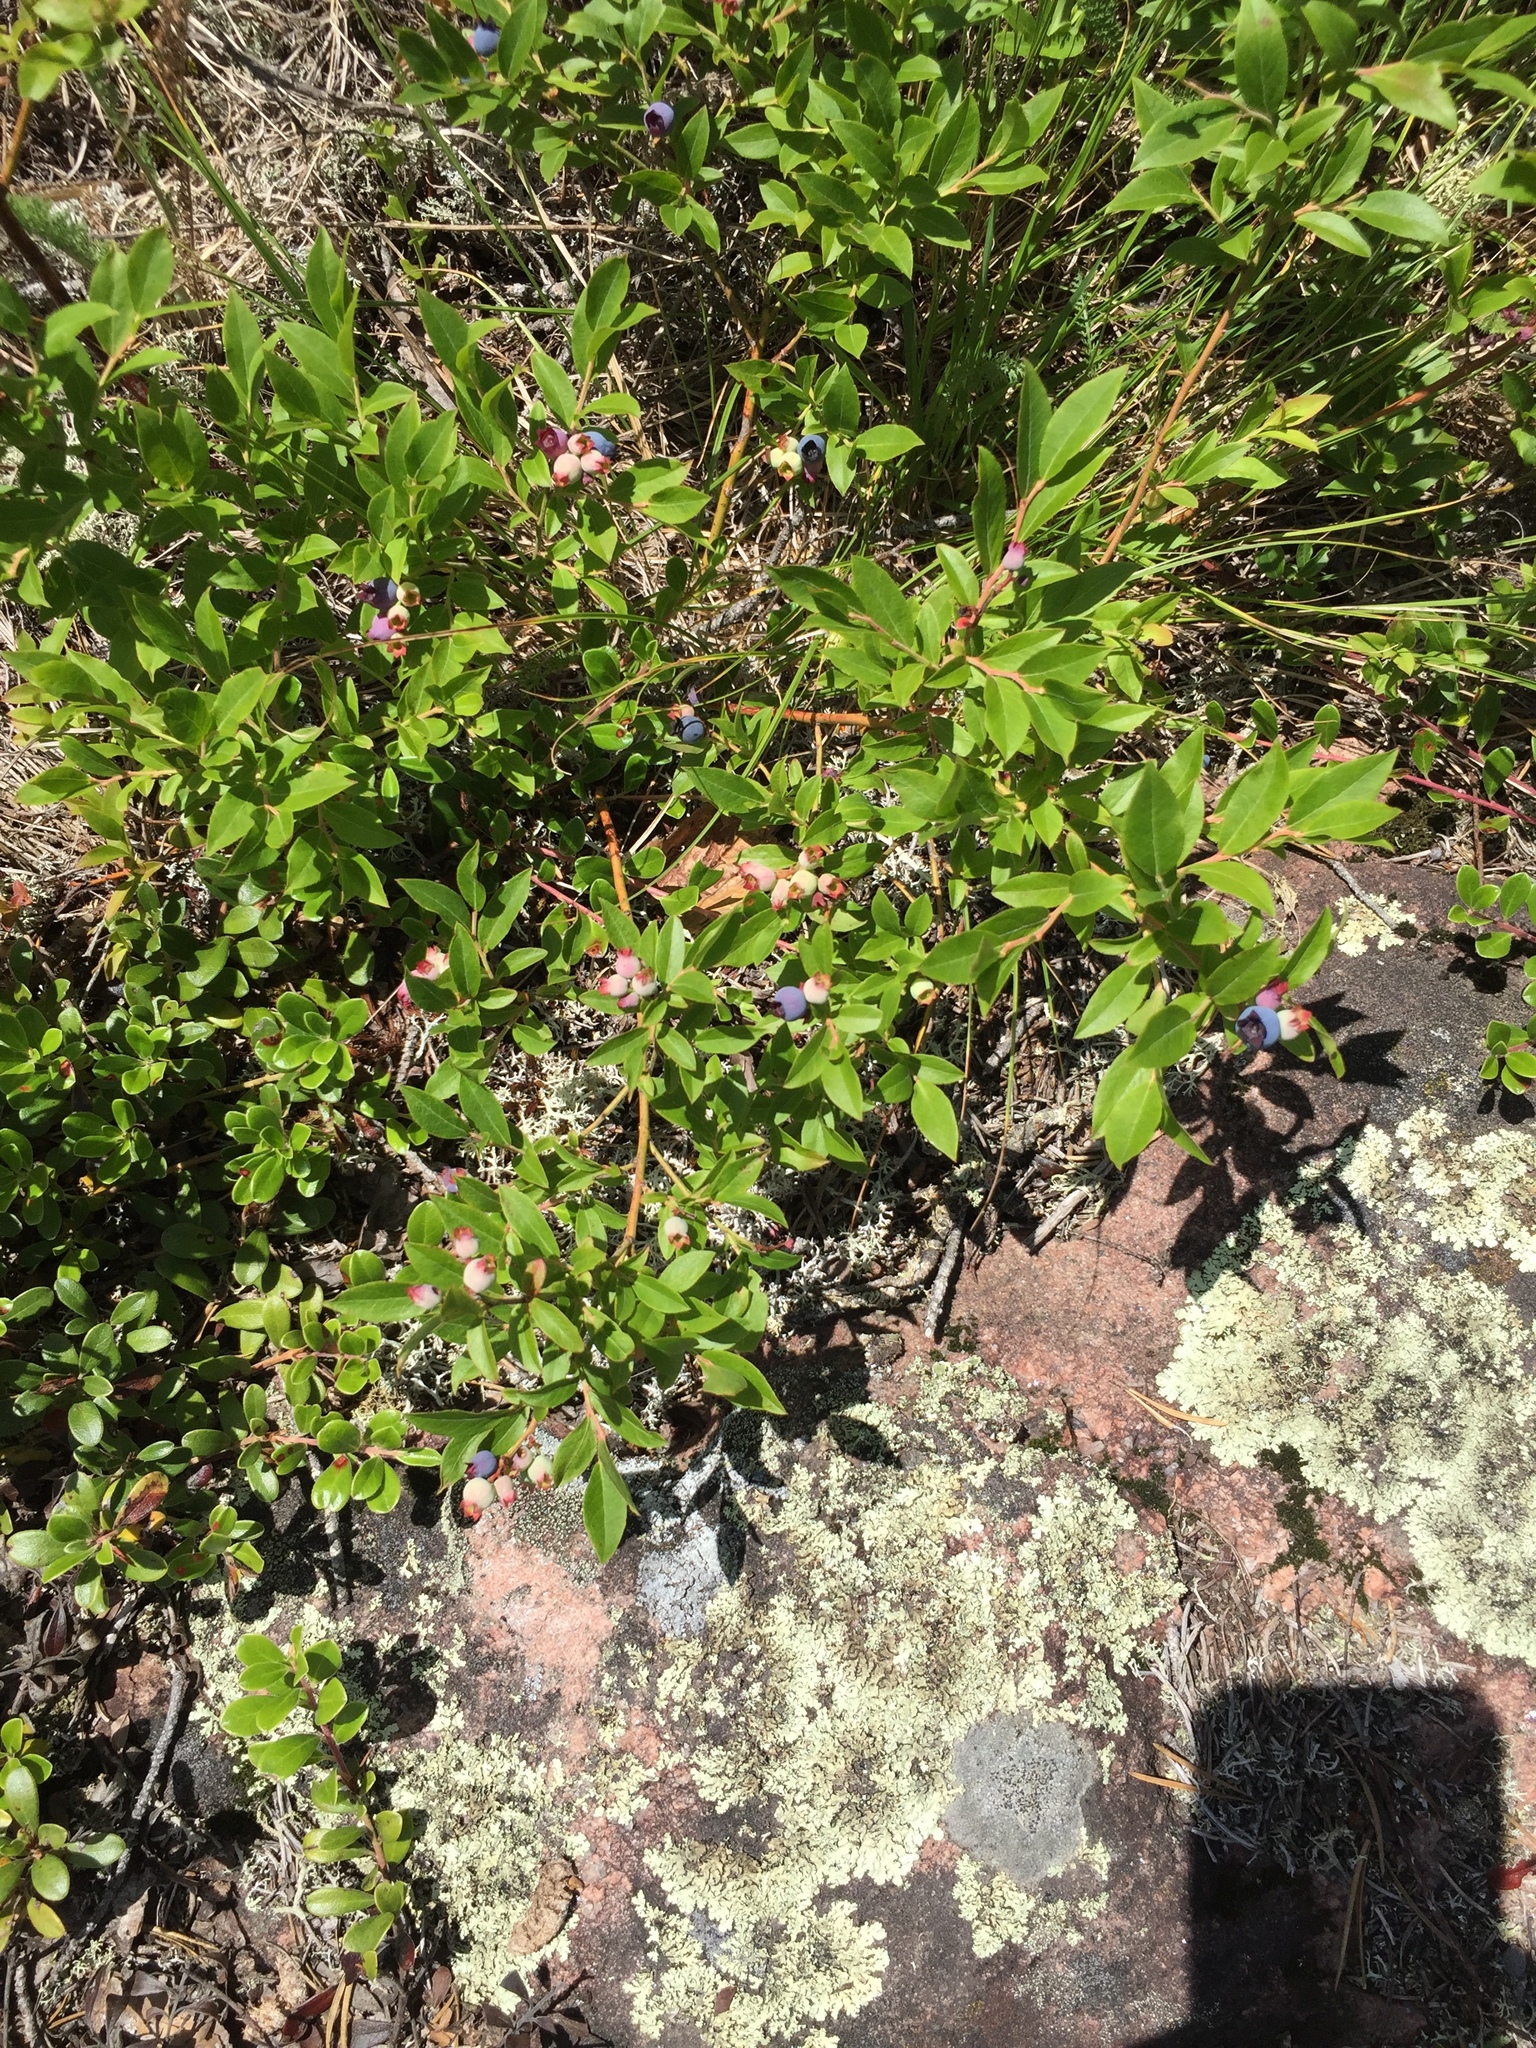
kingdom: Plantae
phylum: Tracheophyta
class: Magnoliopsida
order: Ericales
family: Ericaceae
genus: Vaccinium
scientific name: Vaccinium angustifolium
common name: Early lowbush blueberry
